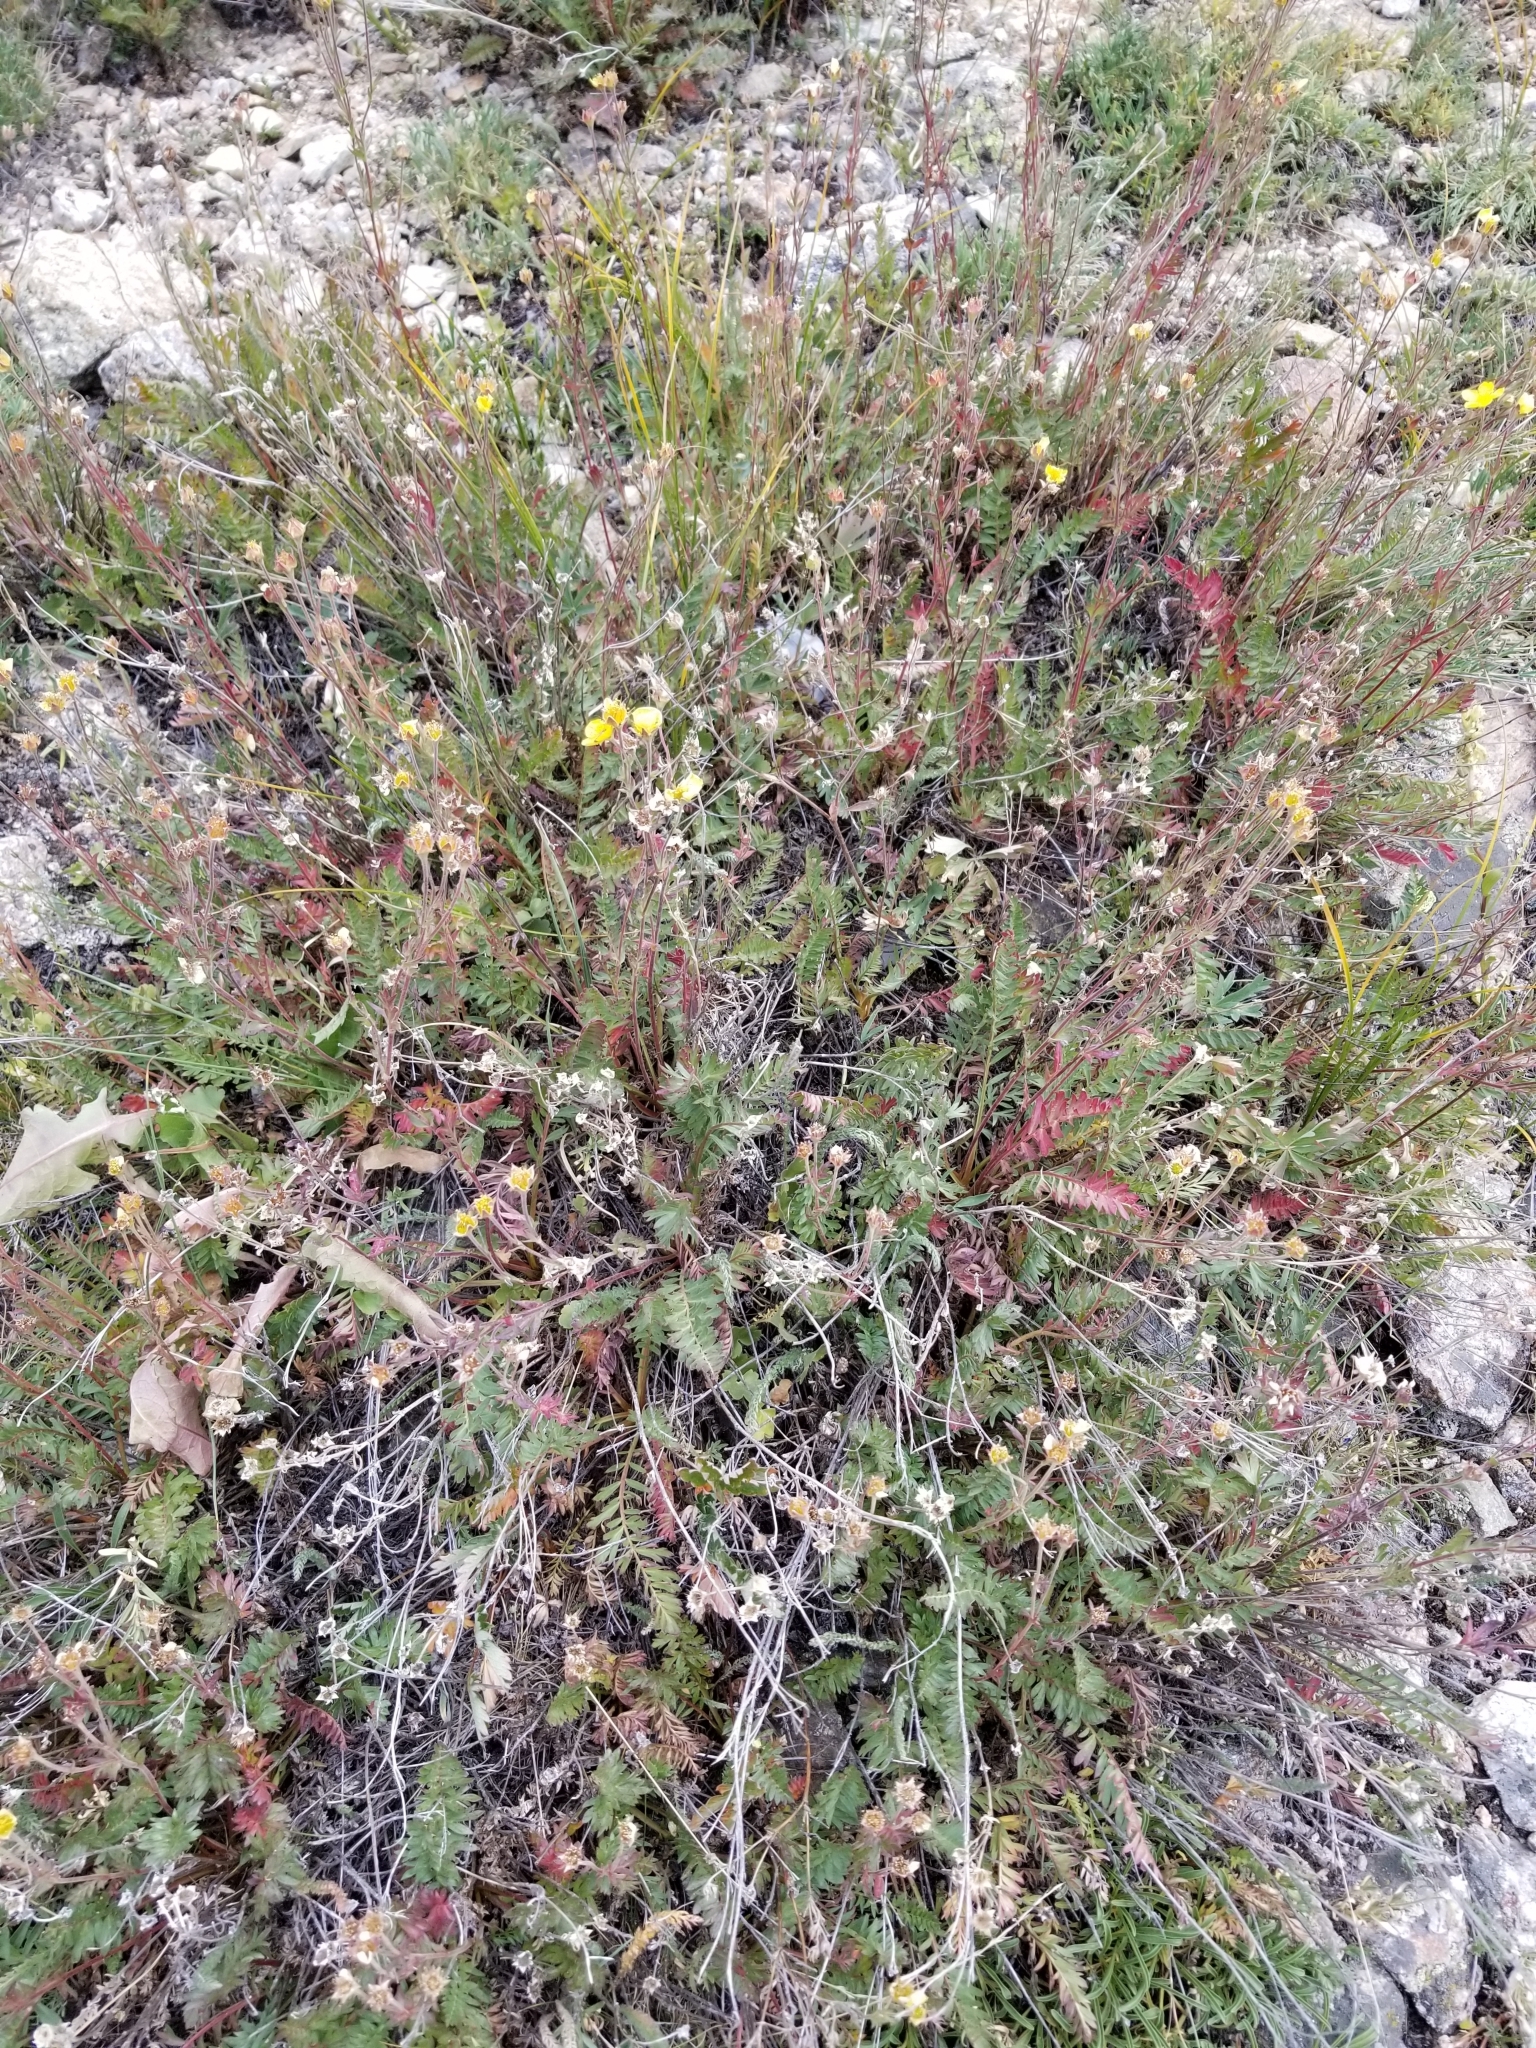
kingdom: Plantae
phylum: Tracheophyta
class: Magnoliopsida
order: Rosales
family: Rosaceae
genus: Geum
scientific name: Geum rossii
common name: Alpine avens
